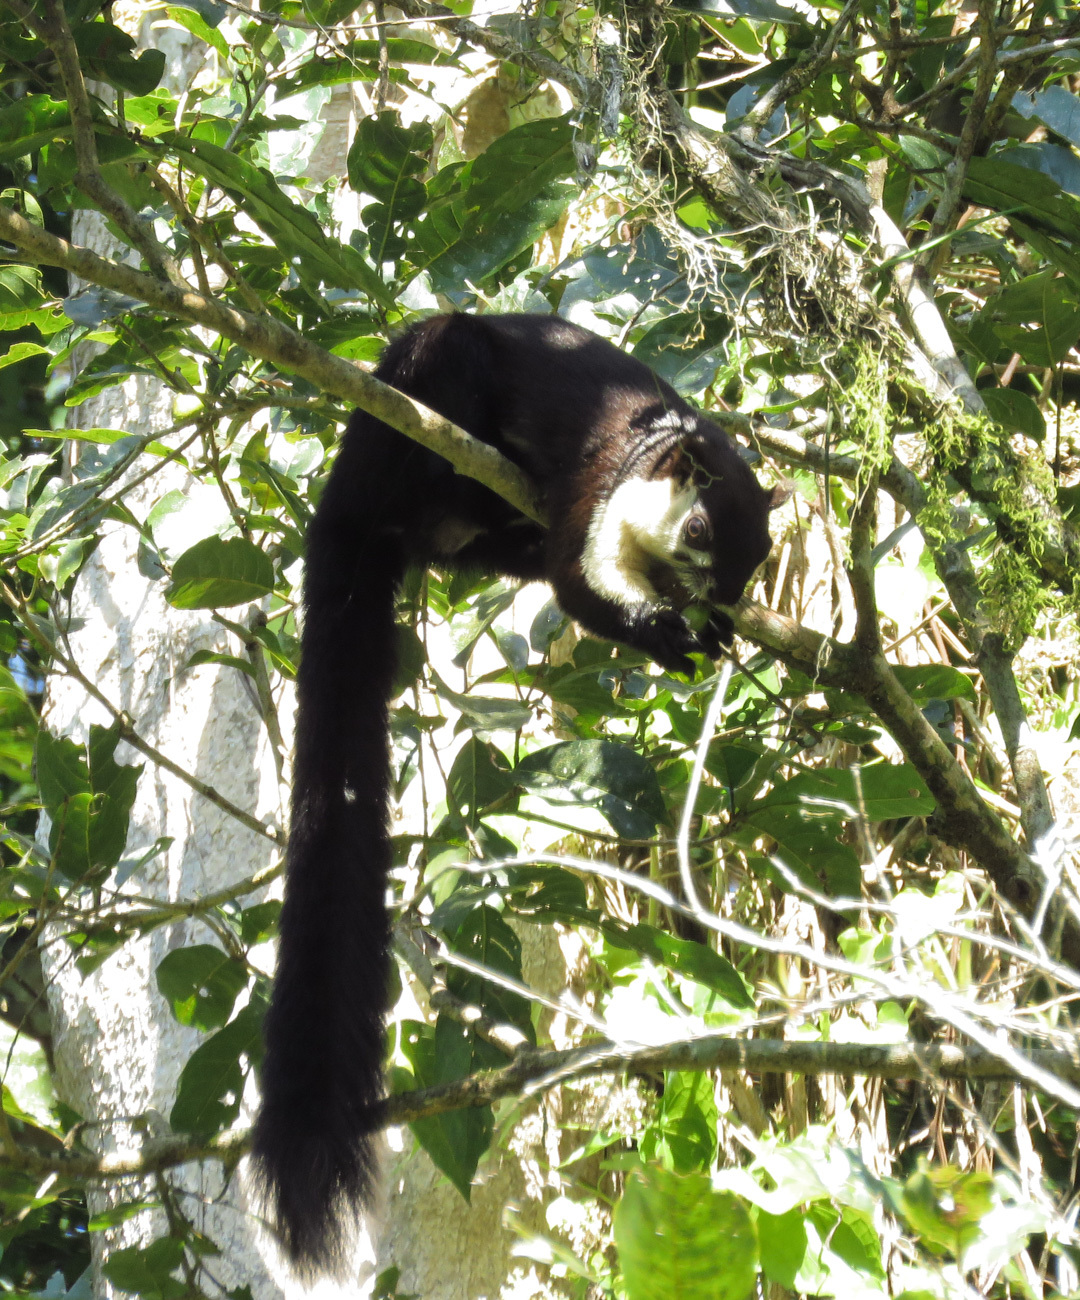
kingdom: Animalia
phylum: Chordata
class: Mammalia
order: Rodentia
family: Sciuridae
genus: Ratufa
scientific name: Ratufa bicolor
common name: Black giant squirrel
